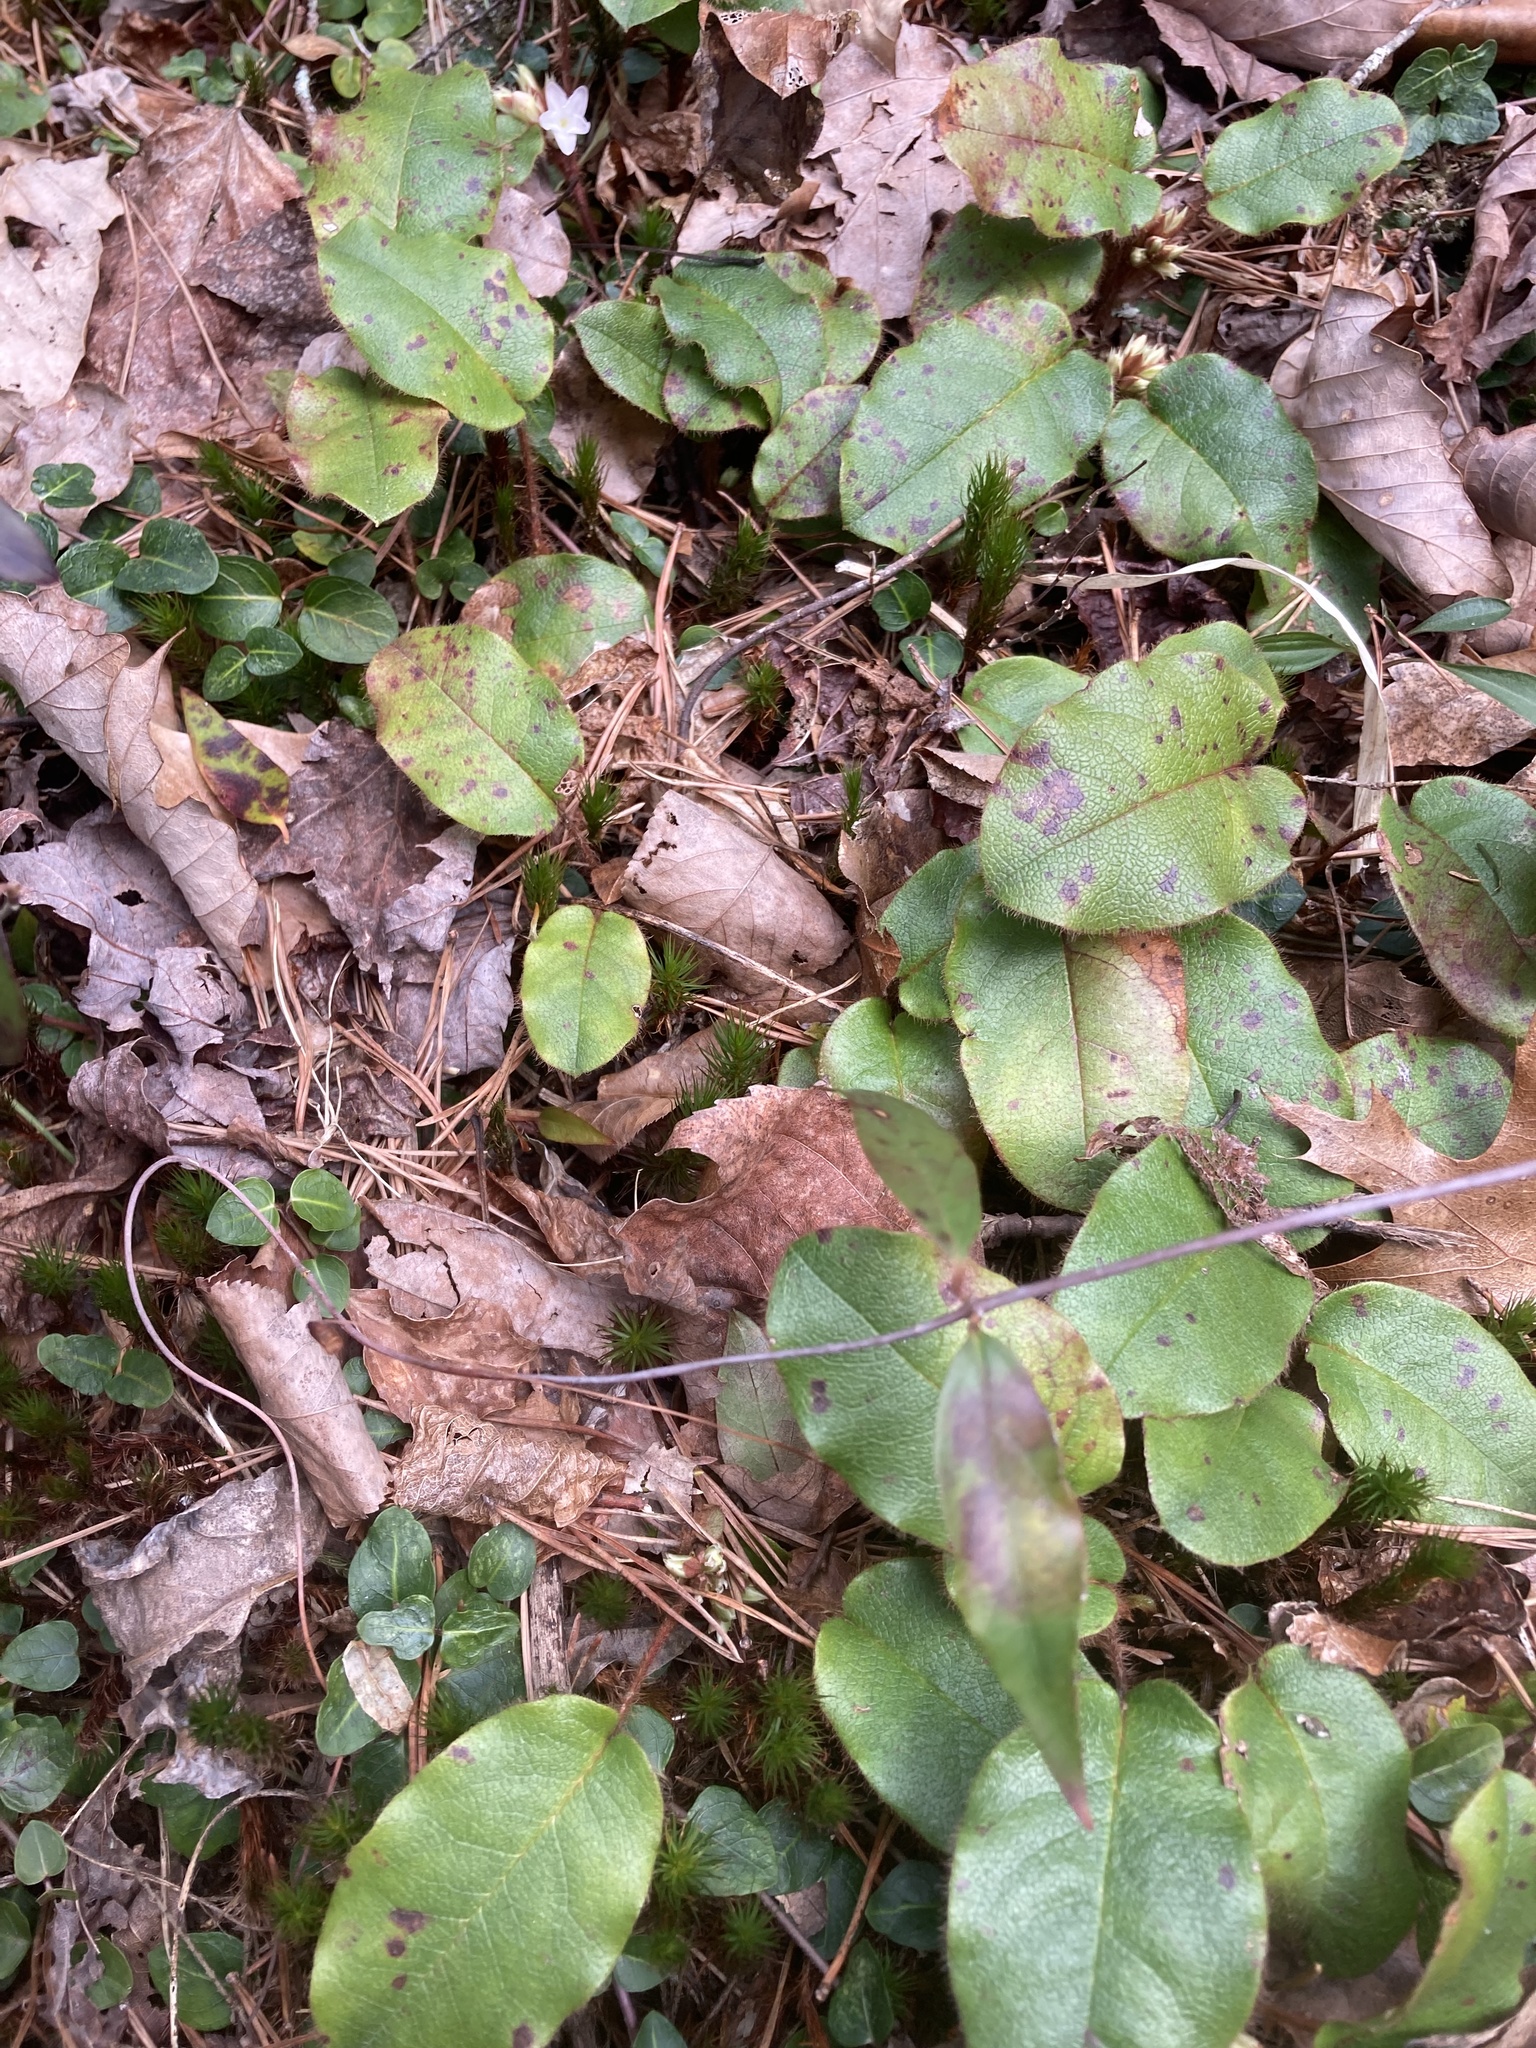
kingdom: Plantae
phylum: Tracheophyta
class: Magnoliopsida
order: Ericales
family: Ericaceae
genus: Epigaea
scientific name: Epigaea repens
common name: Gravelroot
